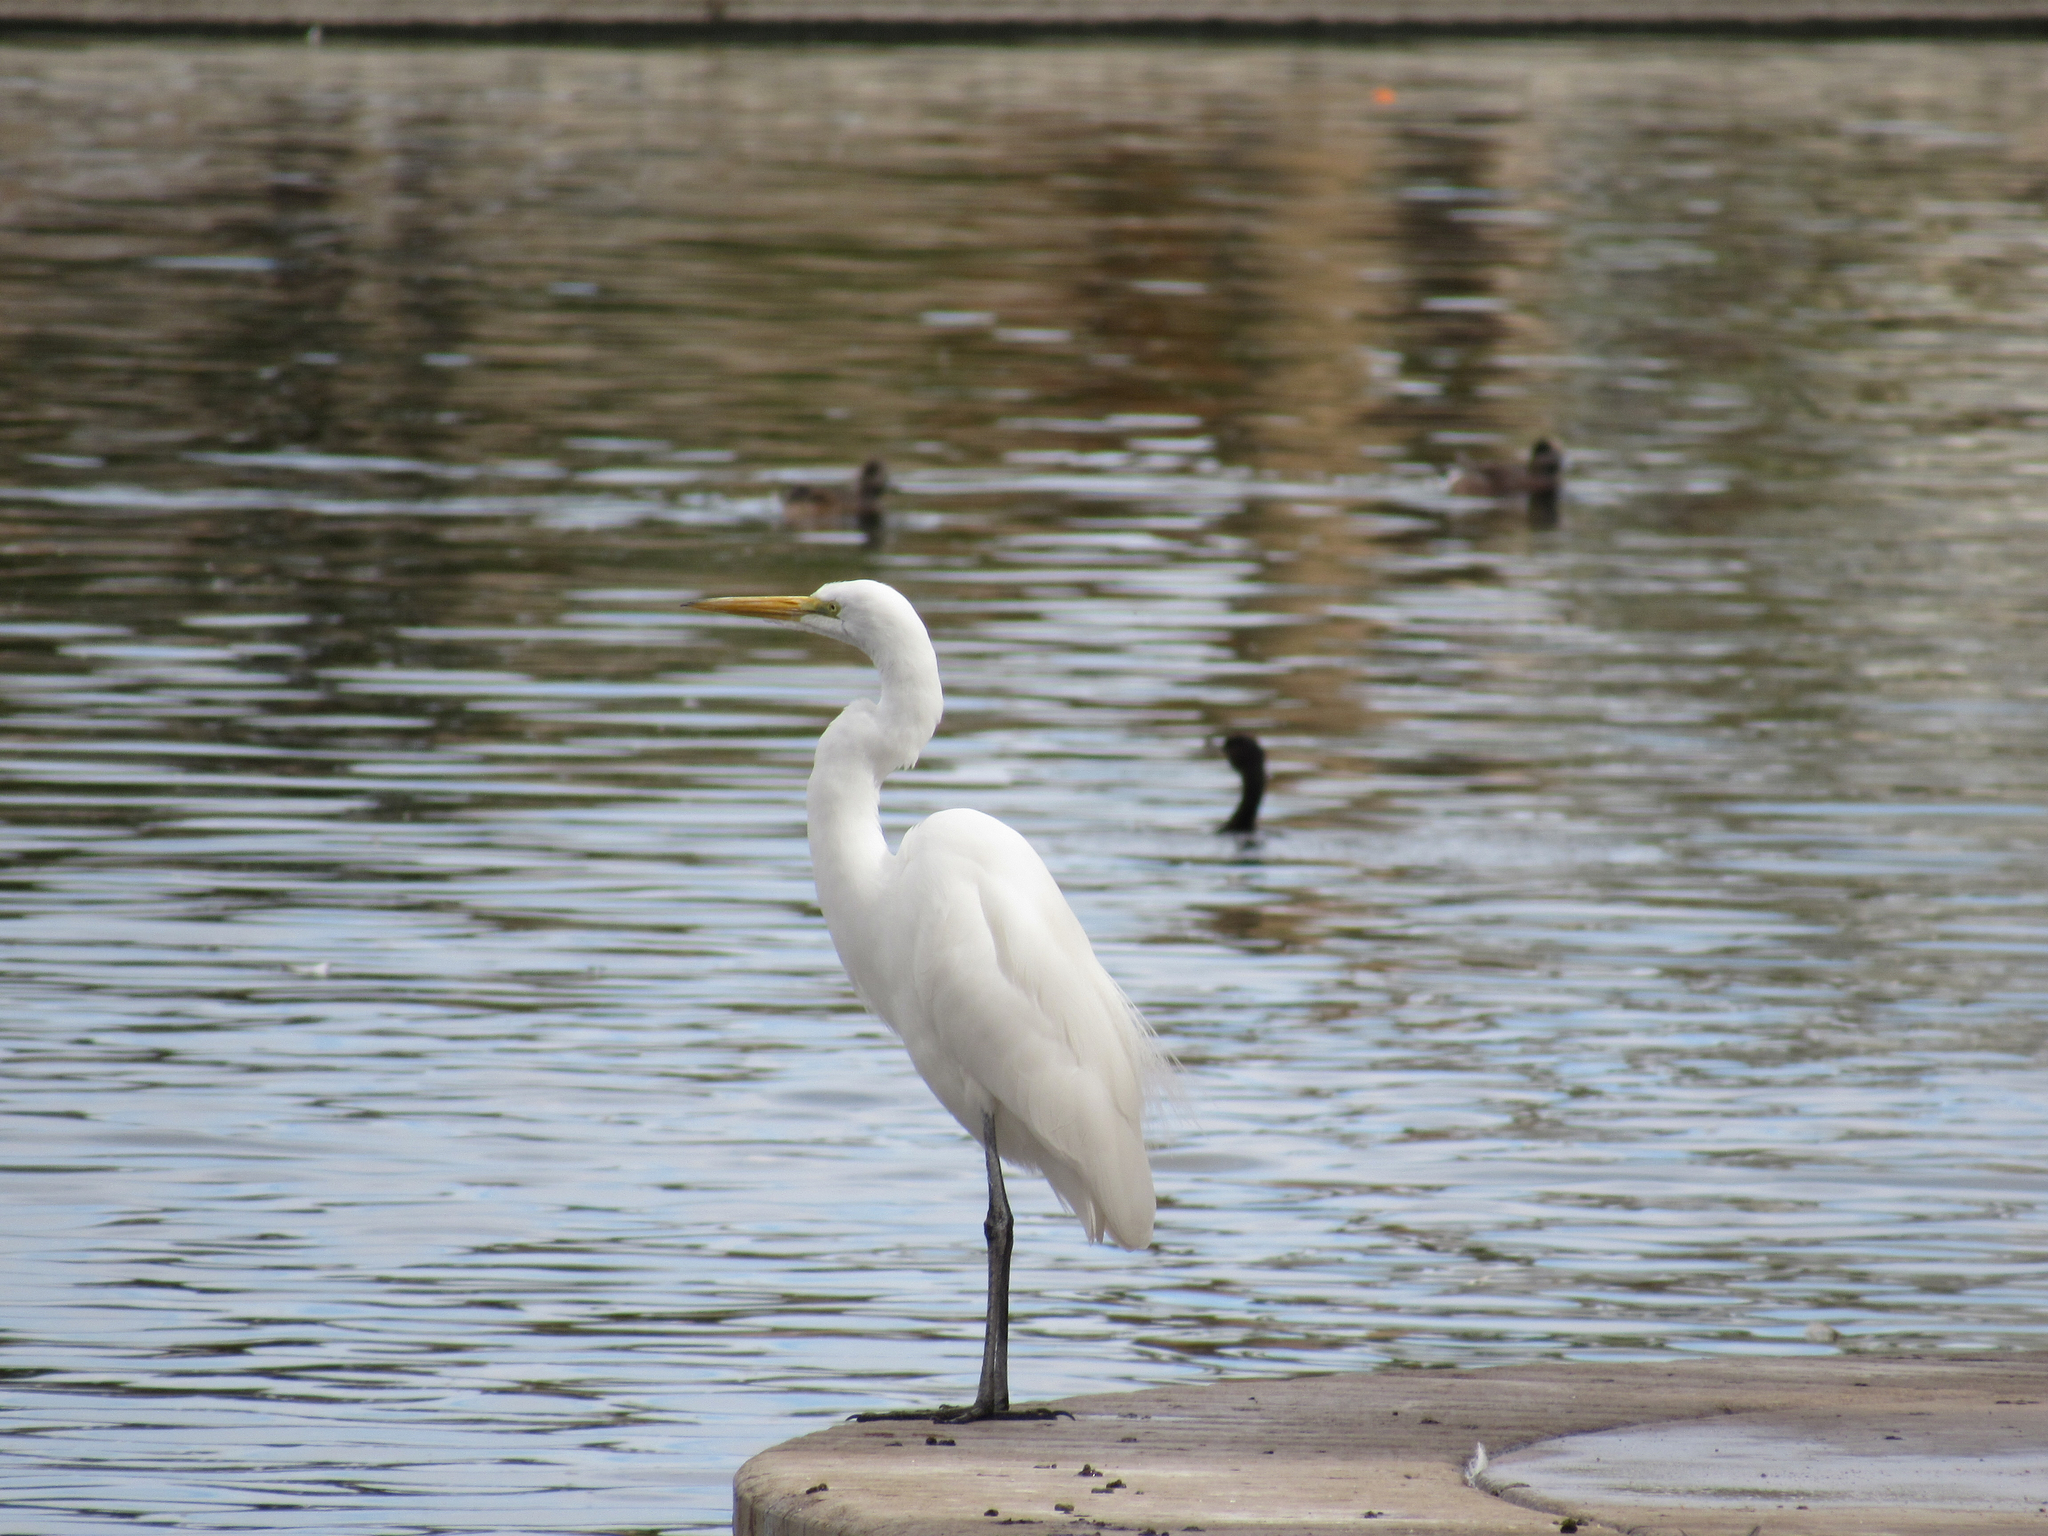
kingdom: Animalia
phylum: Chordata
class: Aves
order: Pelecaniformes
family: Ardeidae
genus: Ardea
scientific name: Ardea alba
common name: Great egret
